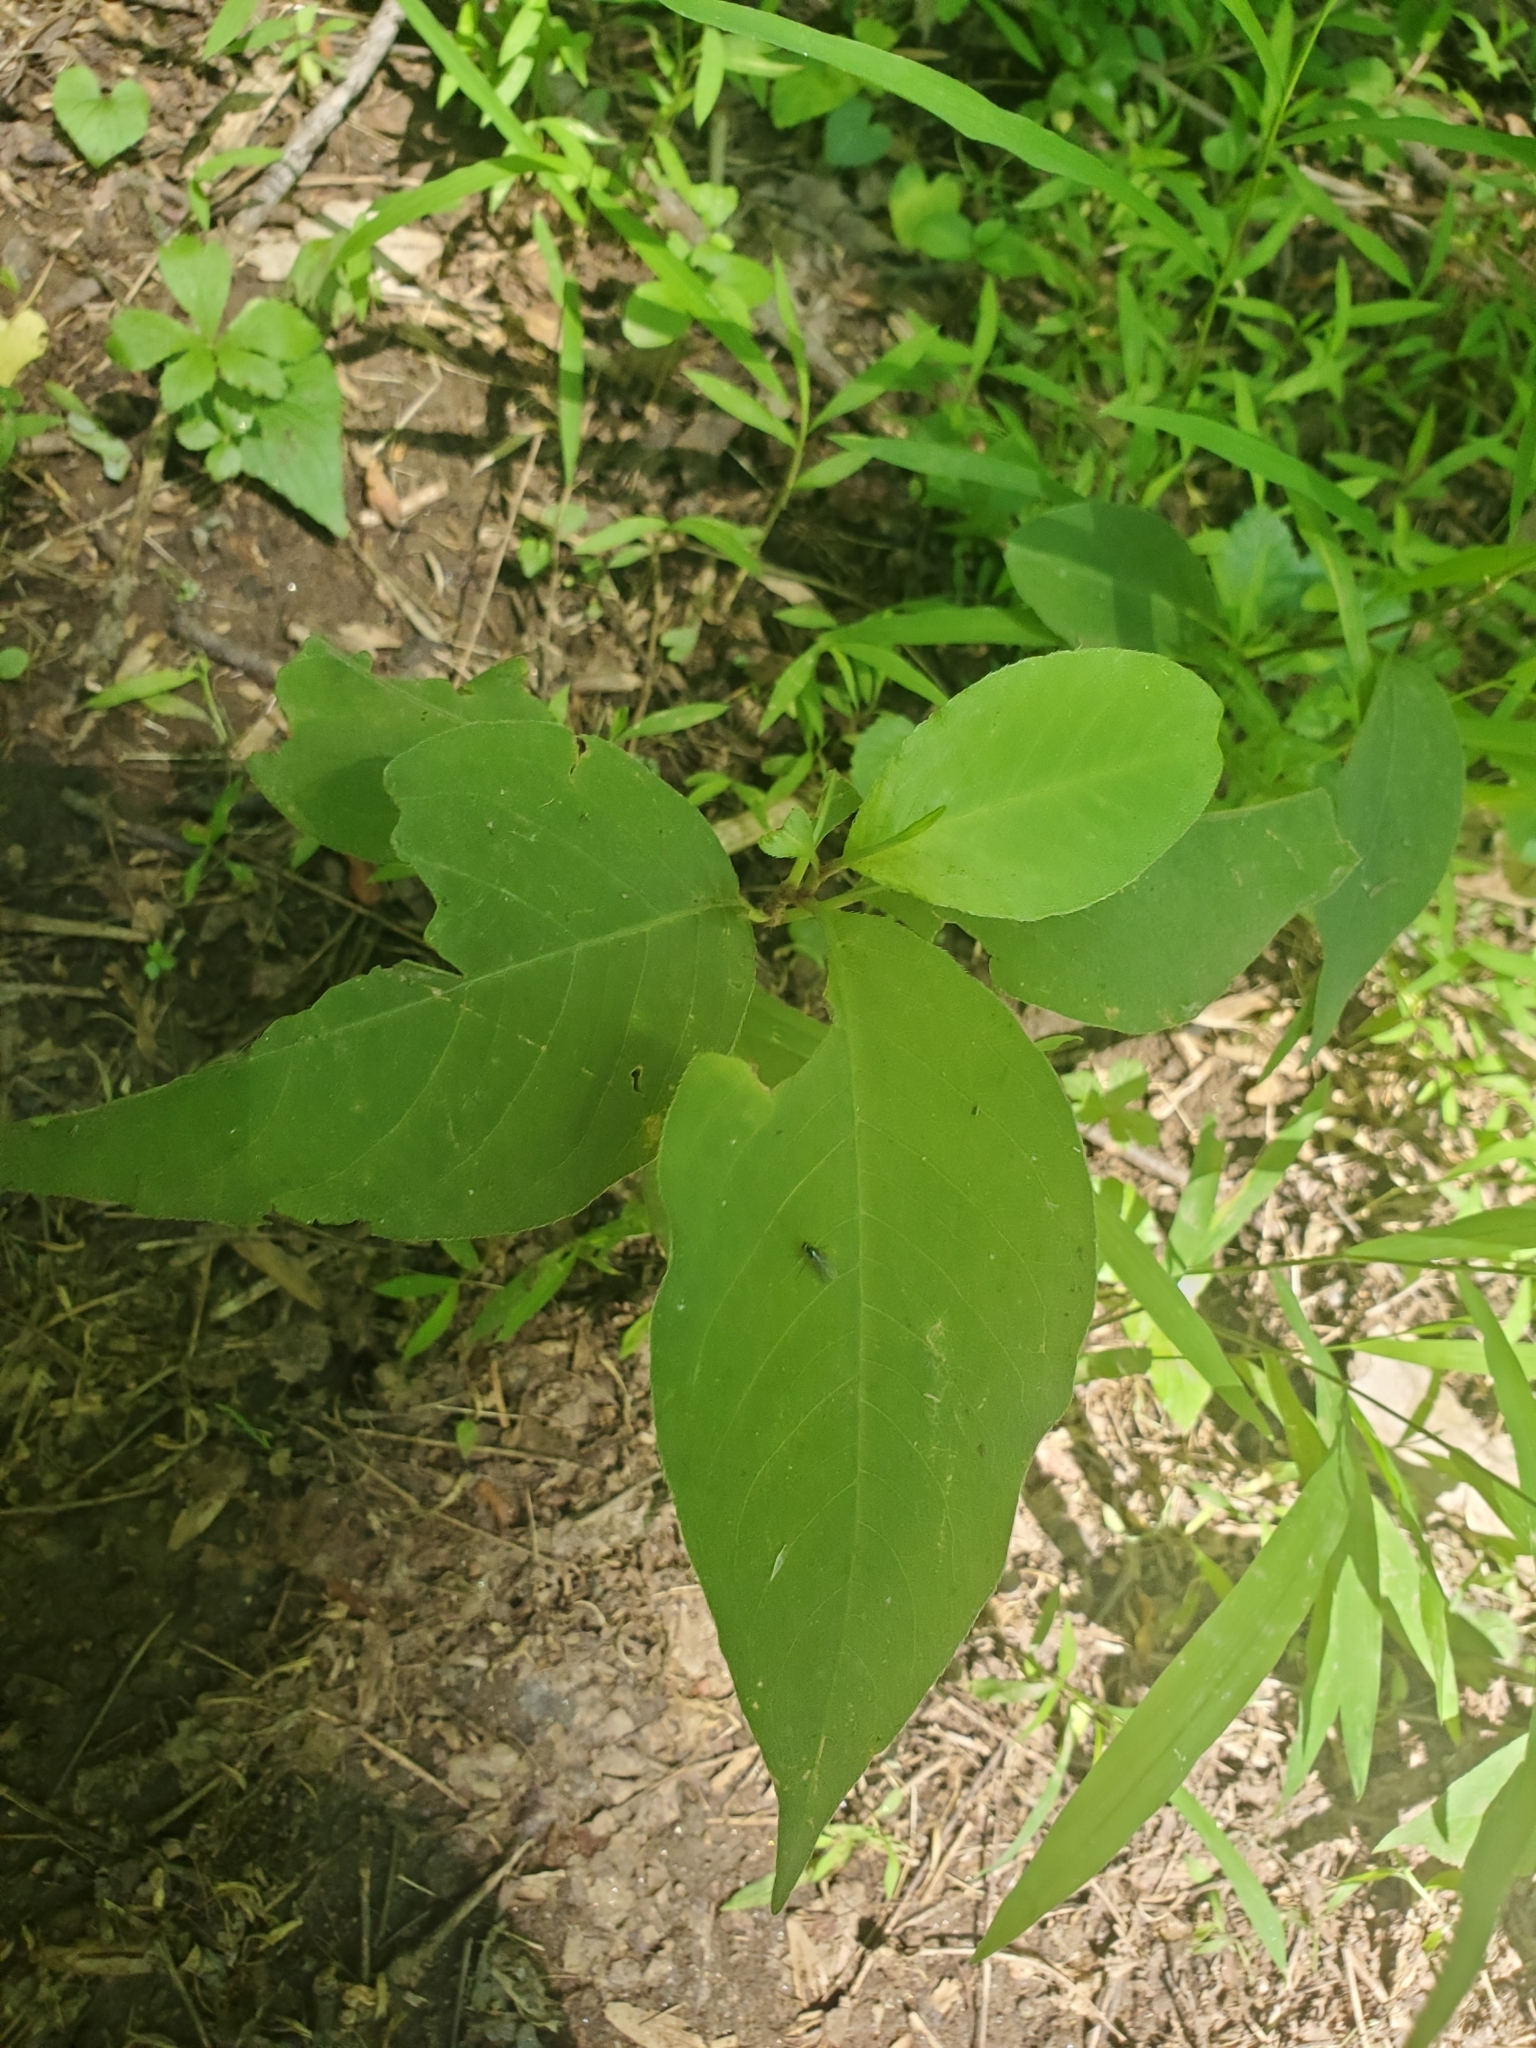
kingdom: Plantae
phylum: Tracheophyta
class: Magnoliopsida
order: Caryophyllales
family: Polygonaceae
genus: Persicaria
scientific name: Persicaria virginiana
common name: Jumpseed
